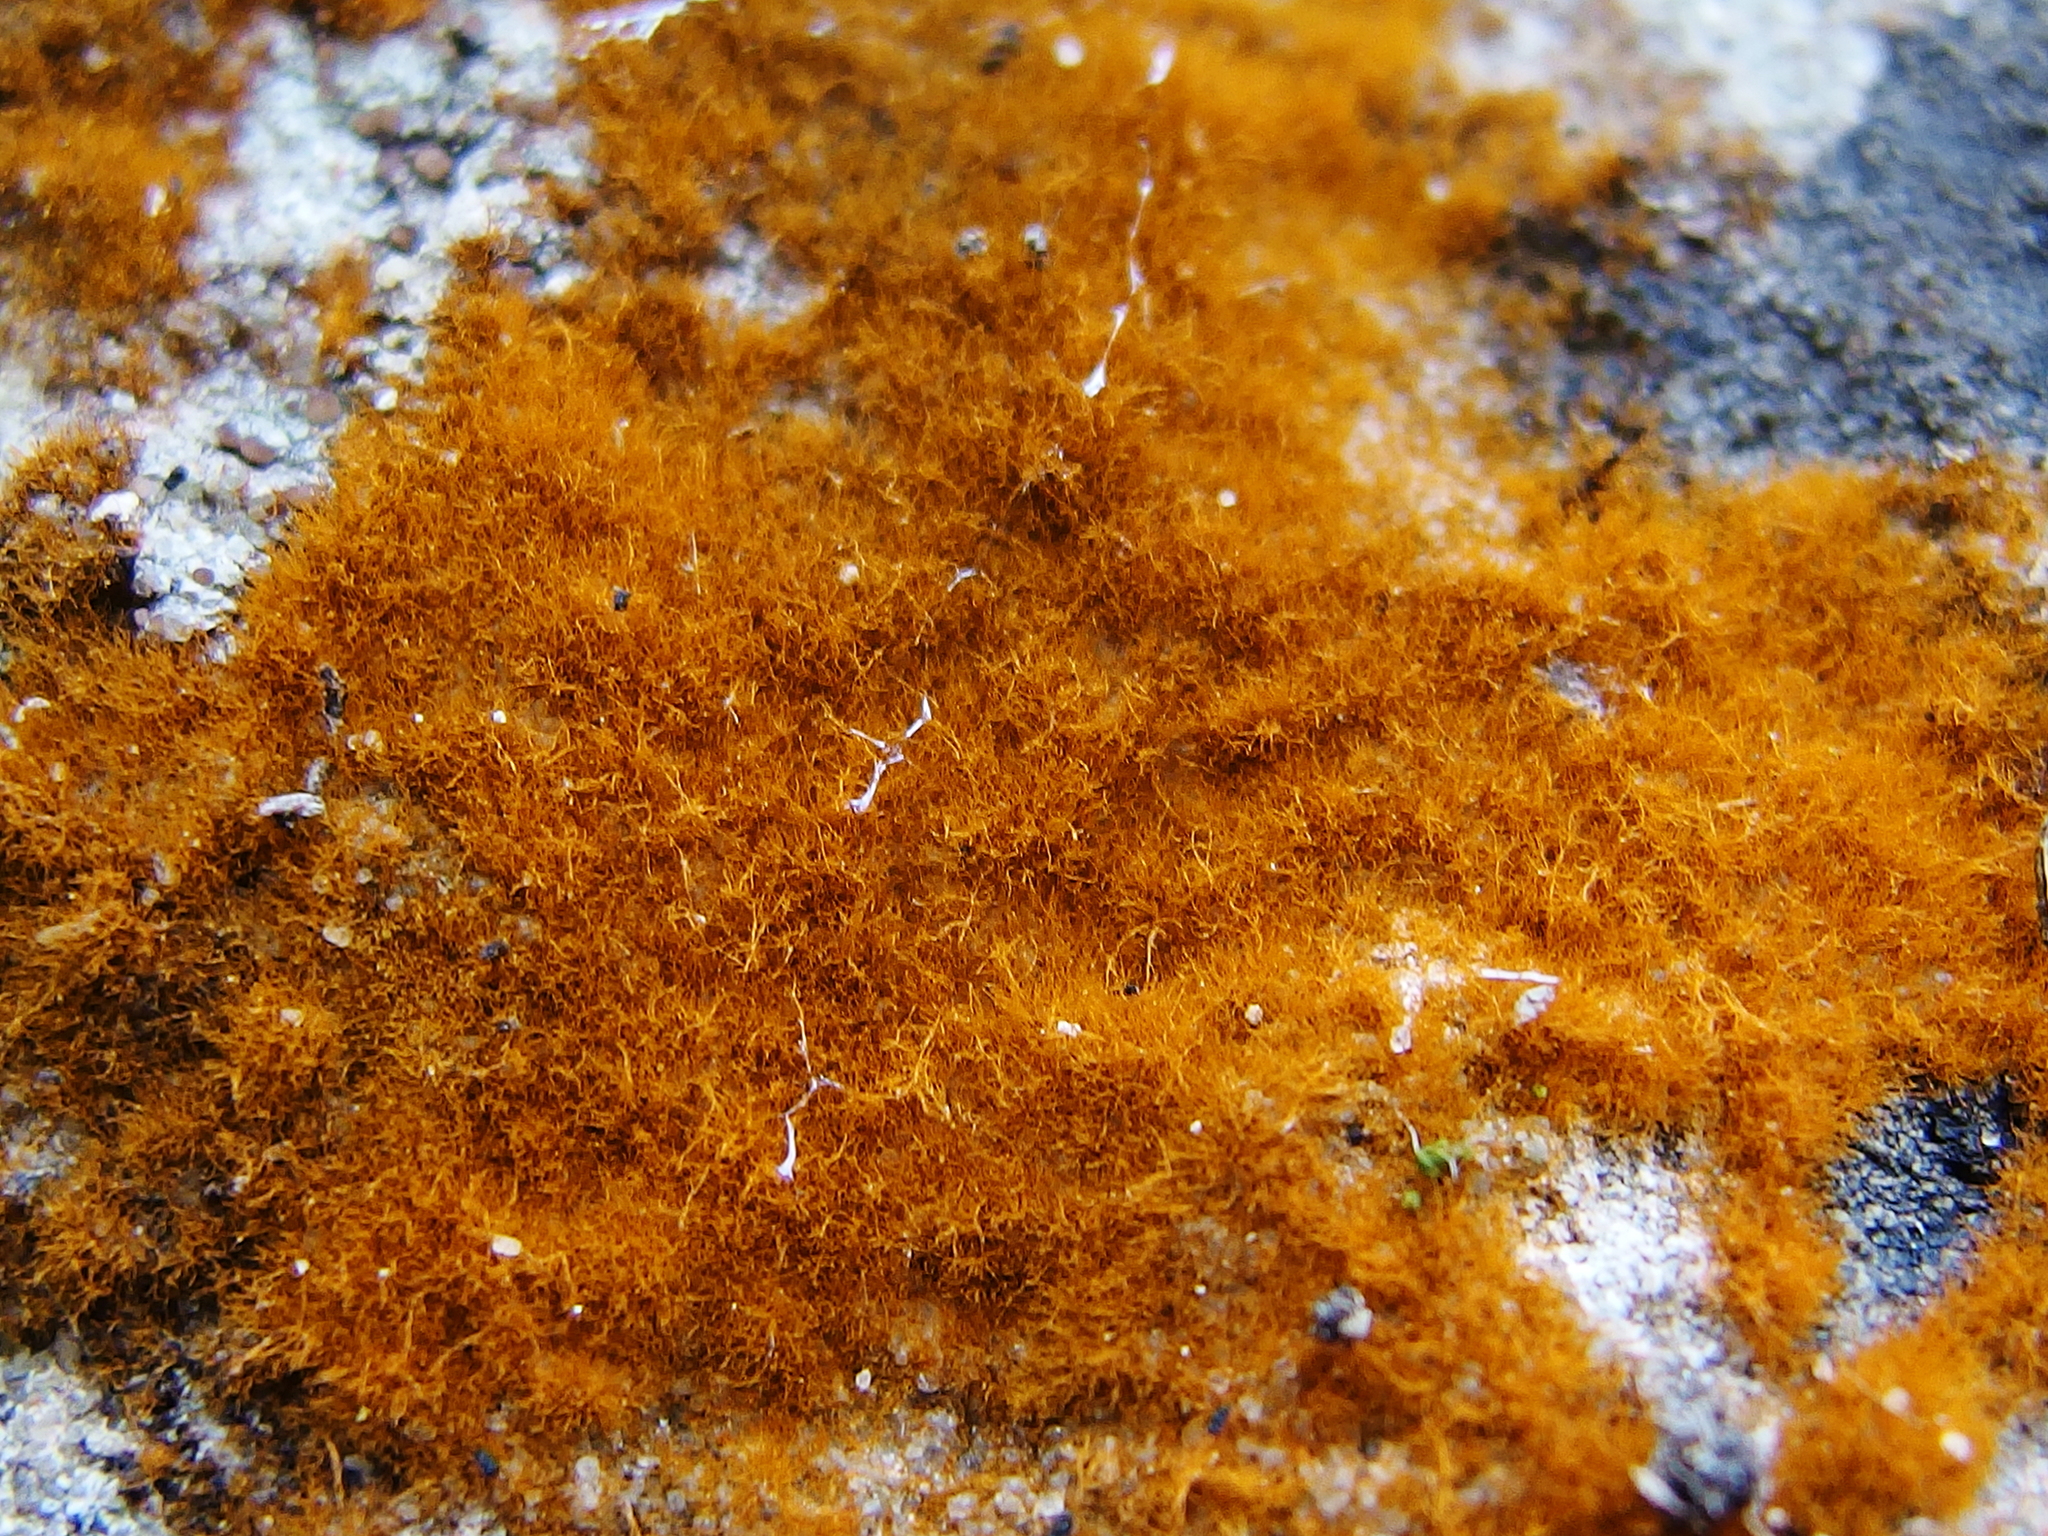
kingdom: Plantae
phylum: Chlorophyta
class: Ulvophyceae
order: Trentepohliales
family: Trentepohliaceae
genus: Trentepohlia
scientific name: Trentepohlia aurea
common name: Orange rock hair
